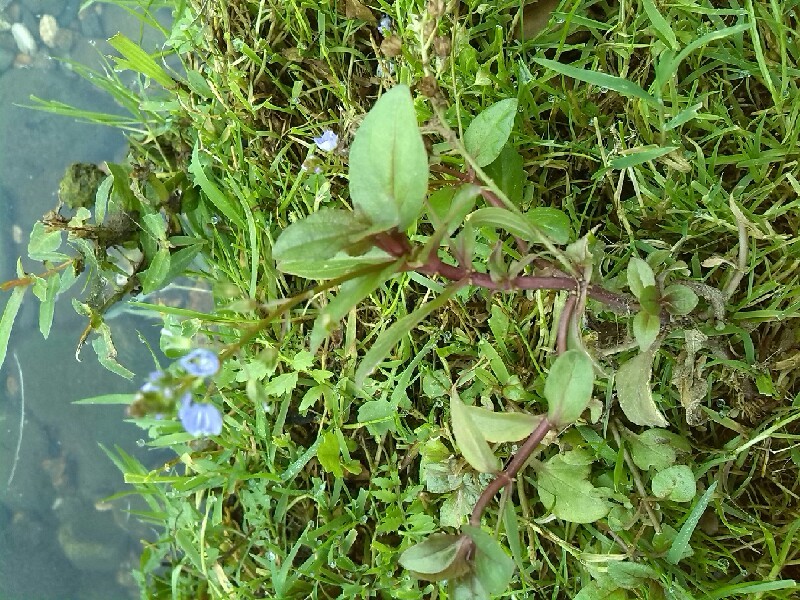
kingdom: Plantae
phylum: Tracheophyta
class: Magnoliopsida
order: Lamiales
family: Plantaginaceae
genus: Veronica
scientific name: Veronica anagallis-aquatica
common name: Water speedwell
